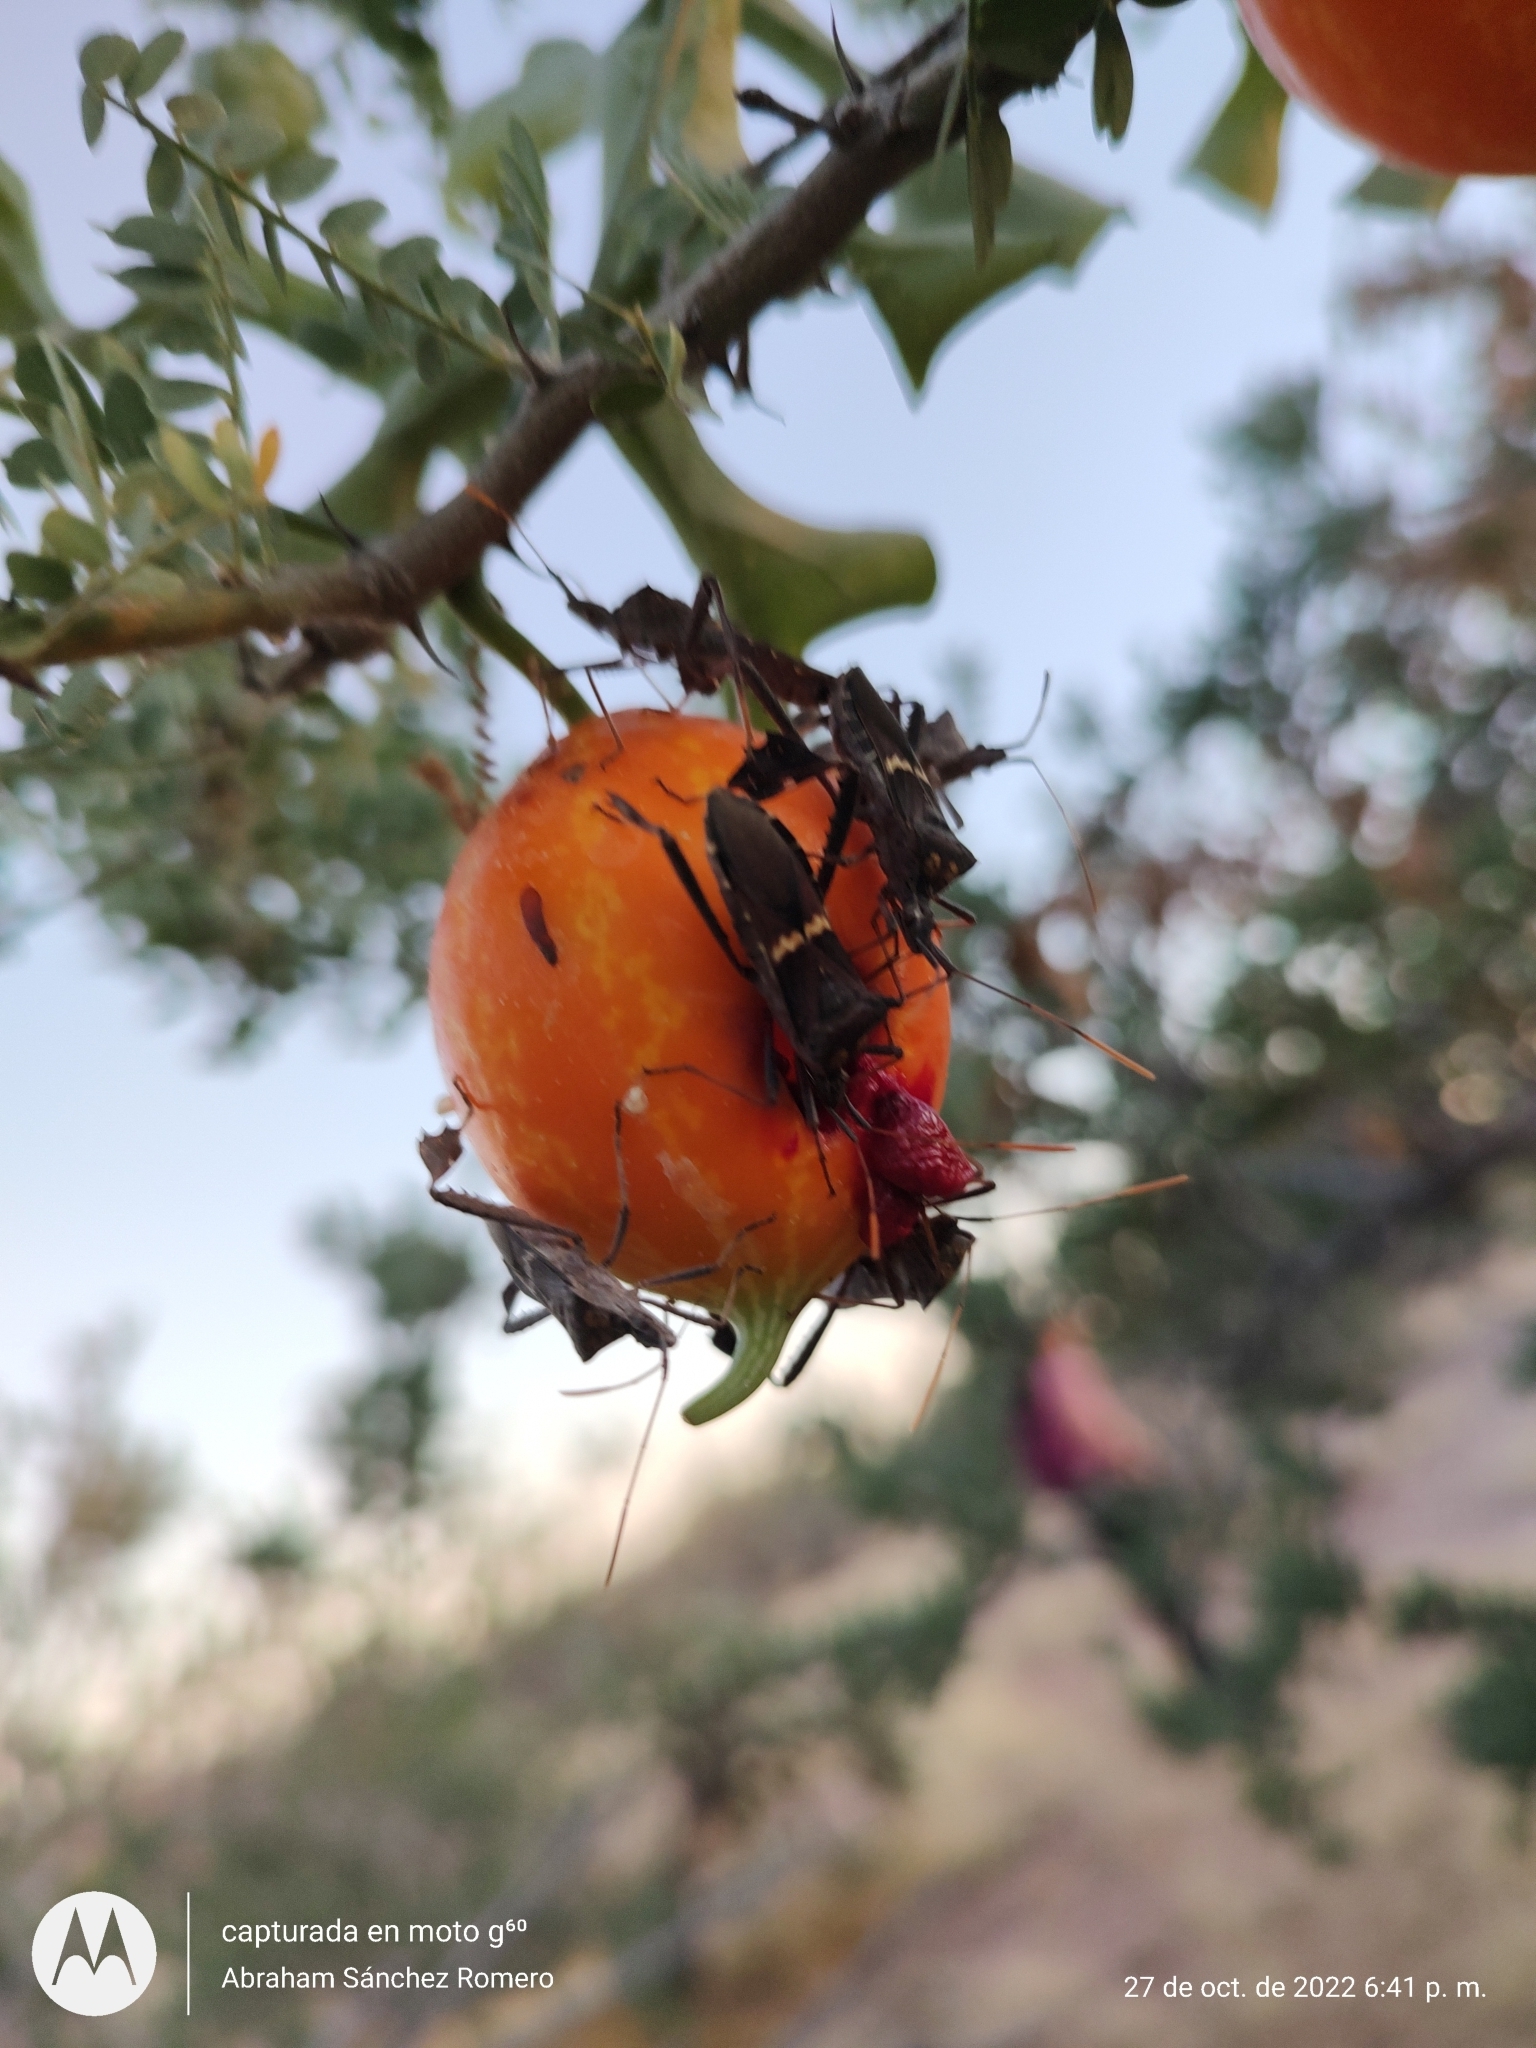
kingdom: Animalia
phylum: Arthropoda
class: Insecta
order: Hemiptera
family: Coreidae
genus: Leptoglossus
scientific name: Leptoglossus zonatus
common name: Large-legged bug
